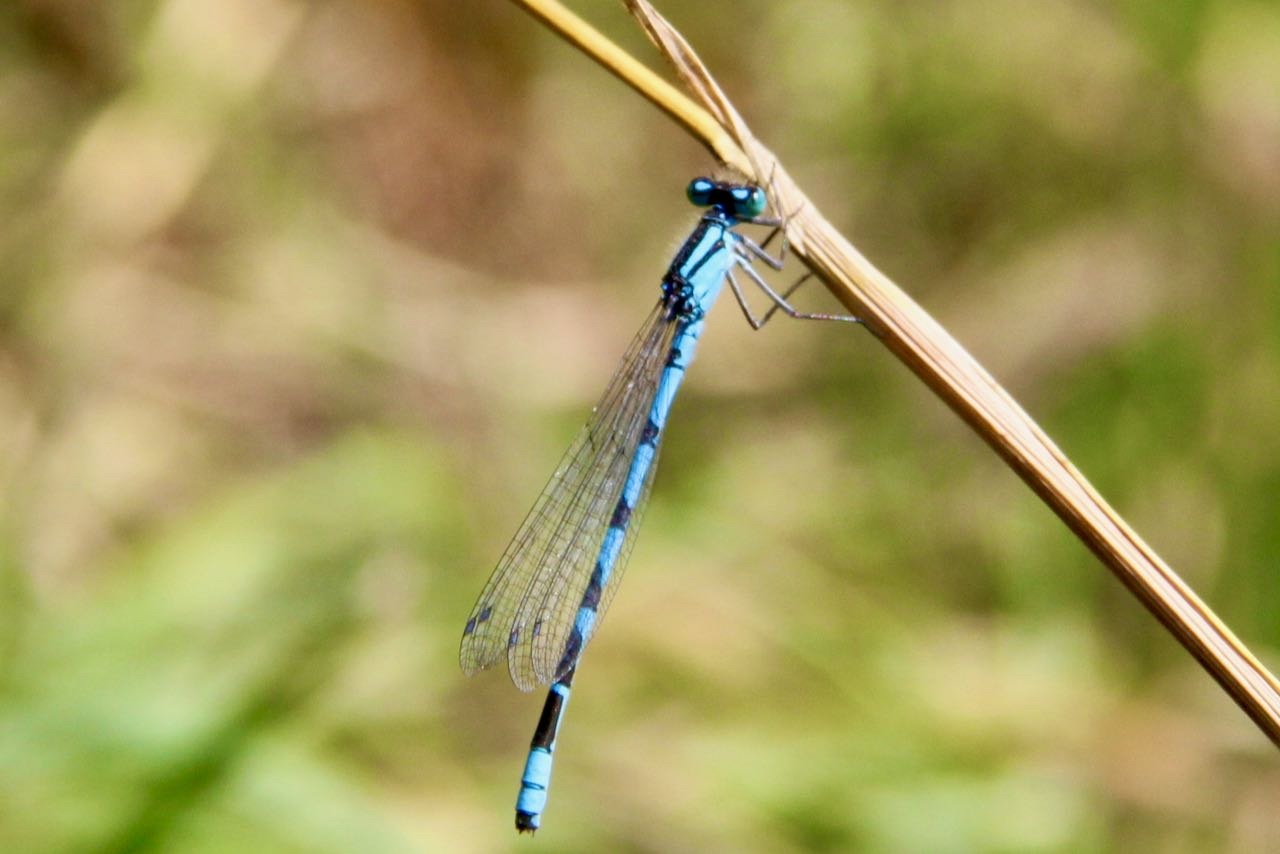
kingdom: Animalia
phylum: Arthropoda
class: Insecta
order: Odonata
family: Coenagrionidae
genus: Enallagma
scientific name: Enallagma cyathigerum
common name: Common blue damselfly
